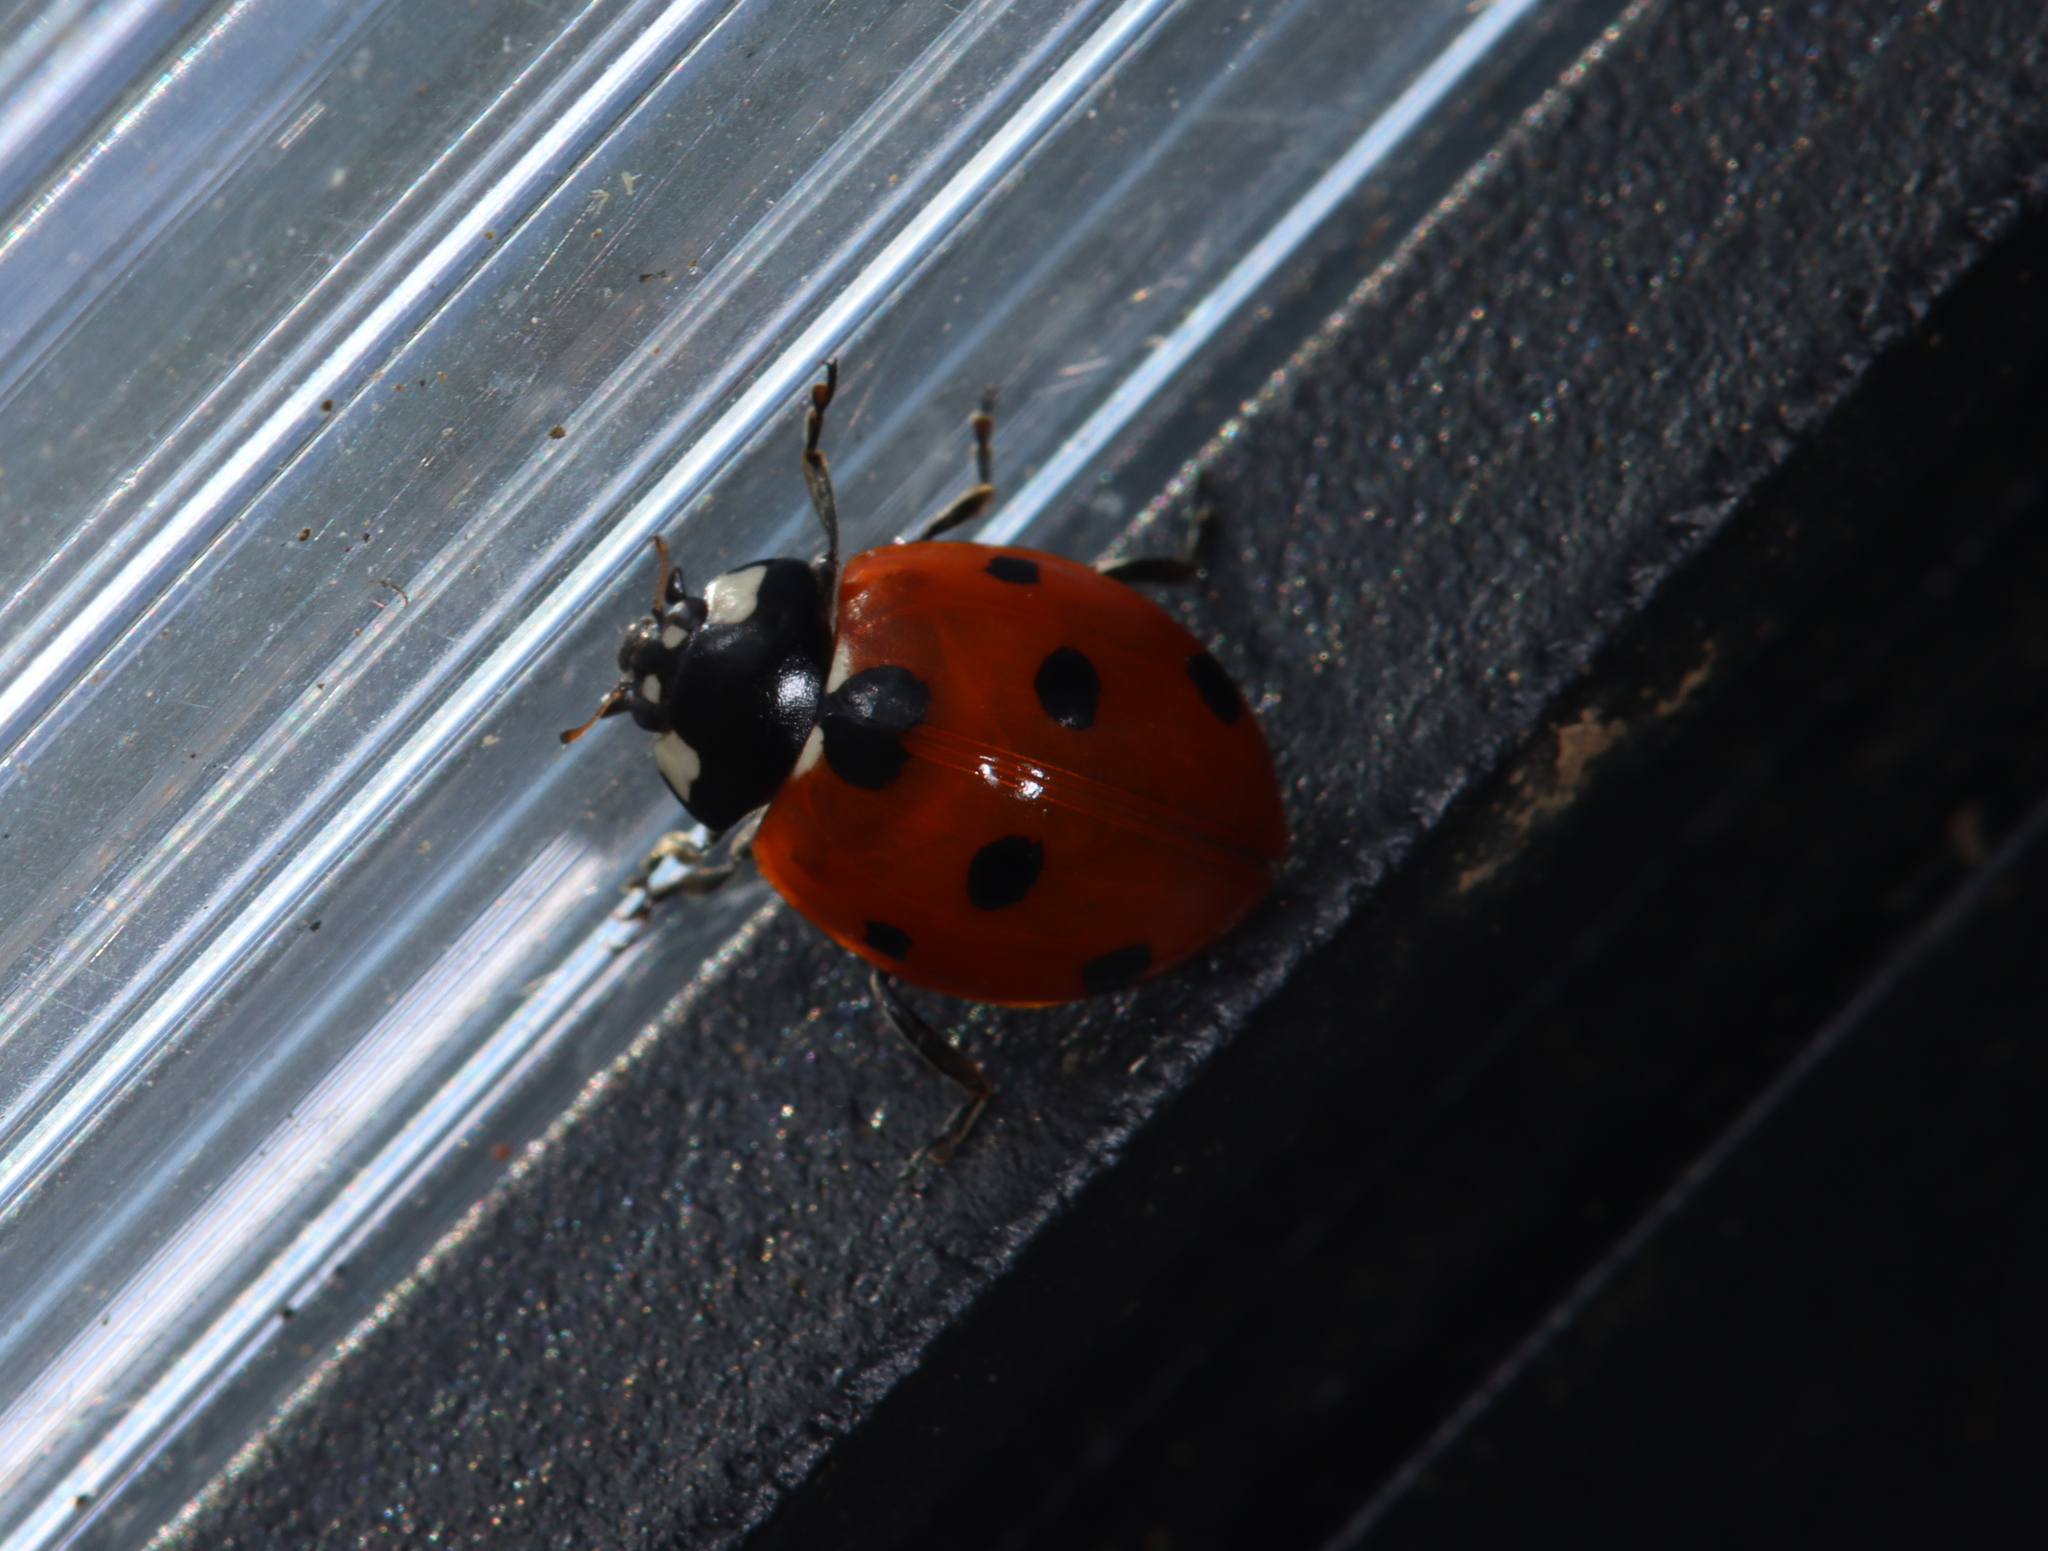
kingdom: Animalia
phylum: Arthropoda
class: Insecta
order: Coleoptera
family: Coccinellidae
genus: Coccinella
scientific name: Coccinella septempunctata
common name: Sevenspotted lady beetle
